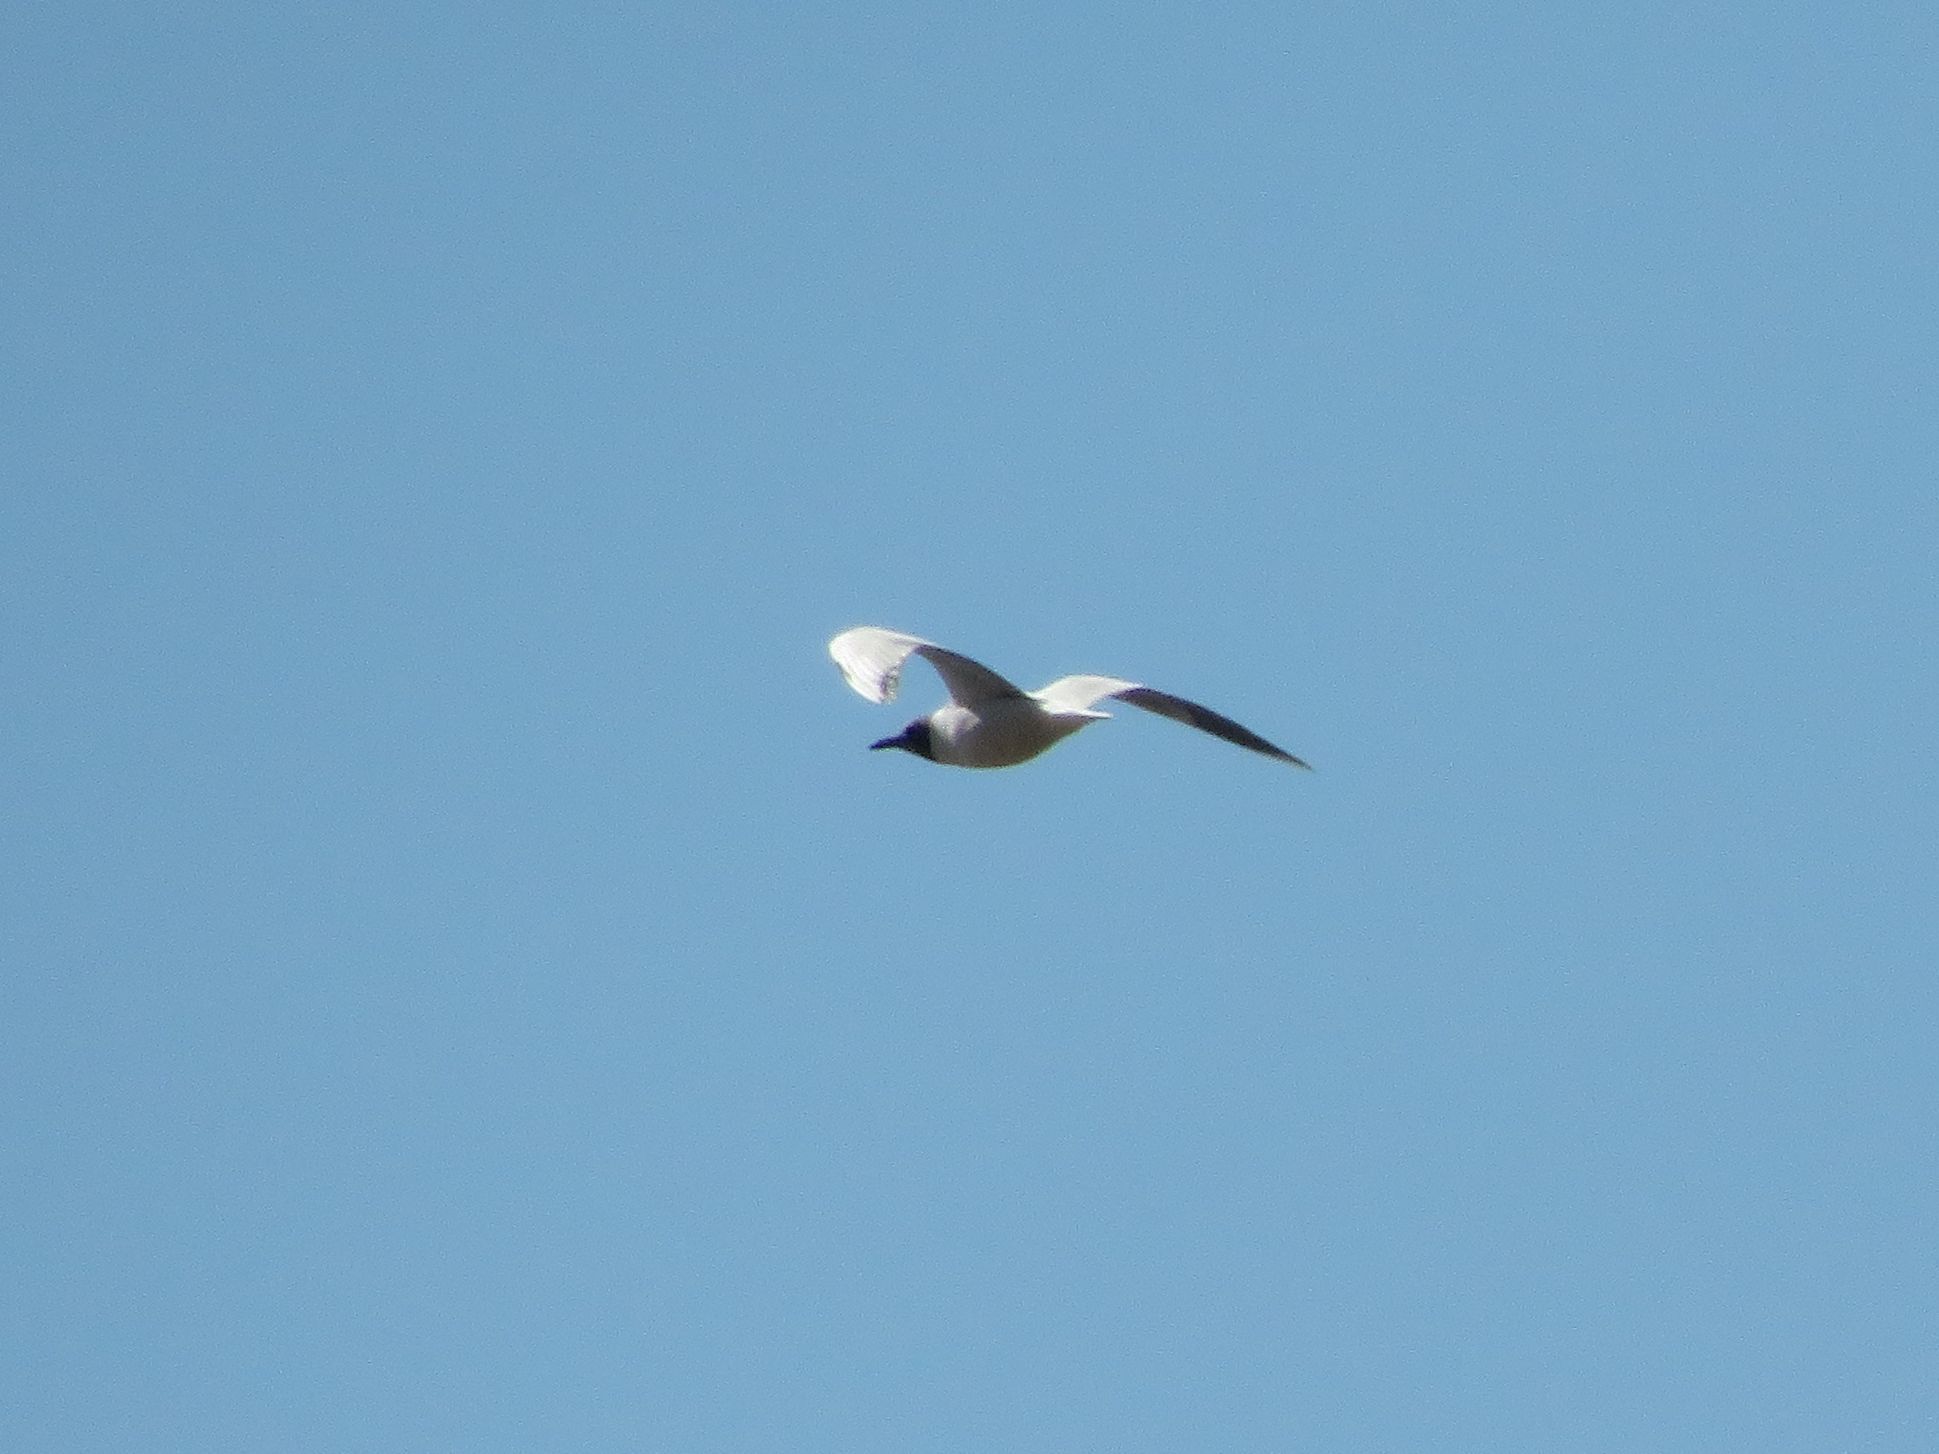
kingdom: Animalia
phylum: Chordata
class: Aves
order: Charadriiformes
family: Laridae
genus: Chroicocephalus
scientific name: Chroicocephalus maculipennis
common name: Brown-hooded gull
